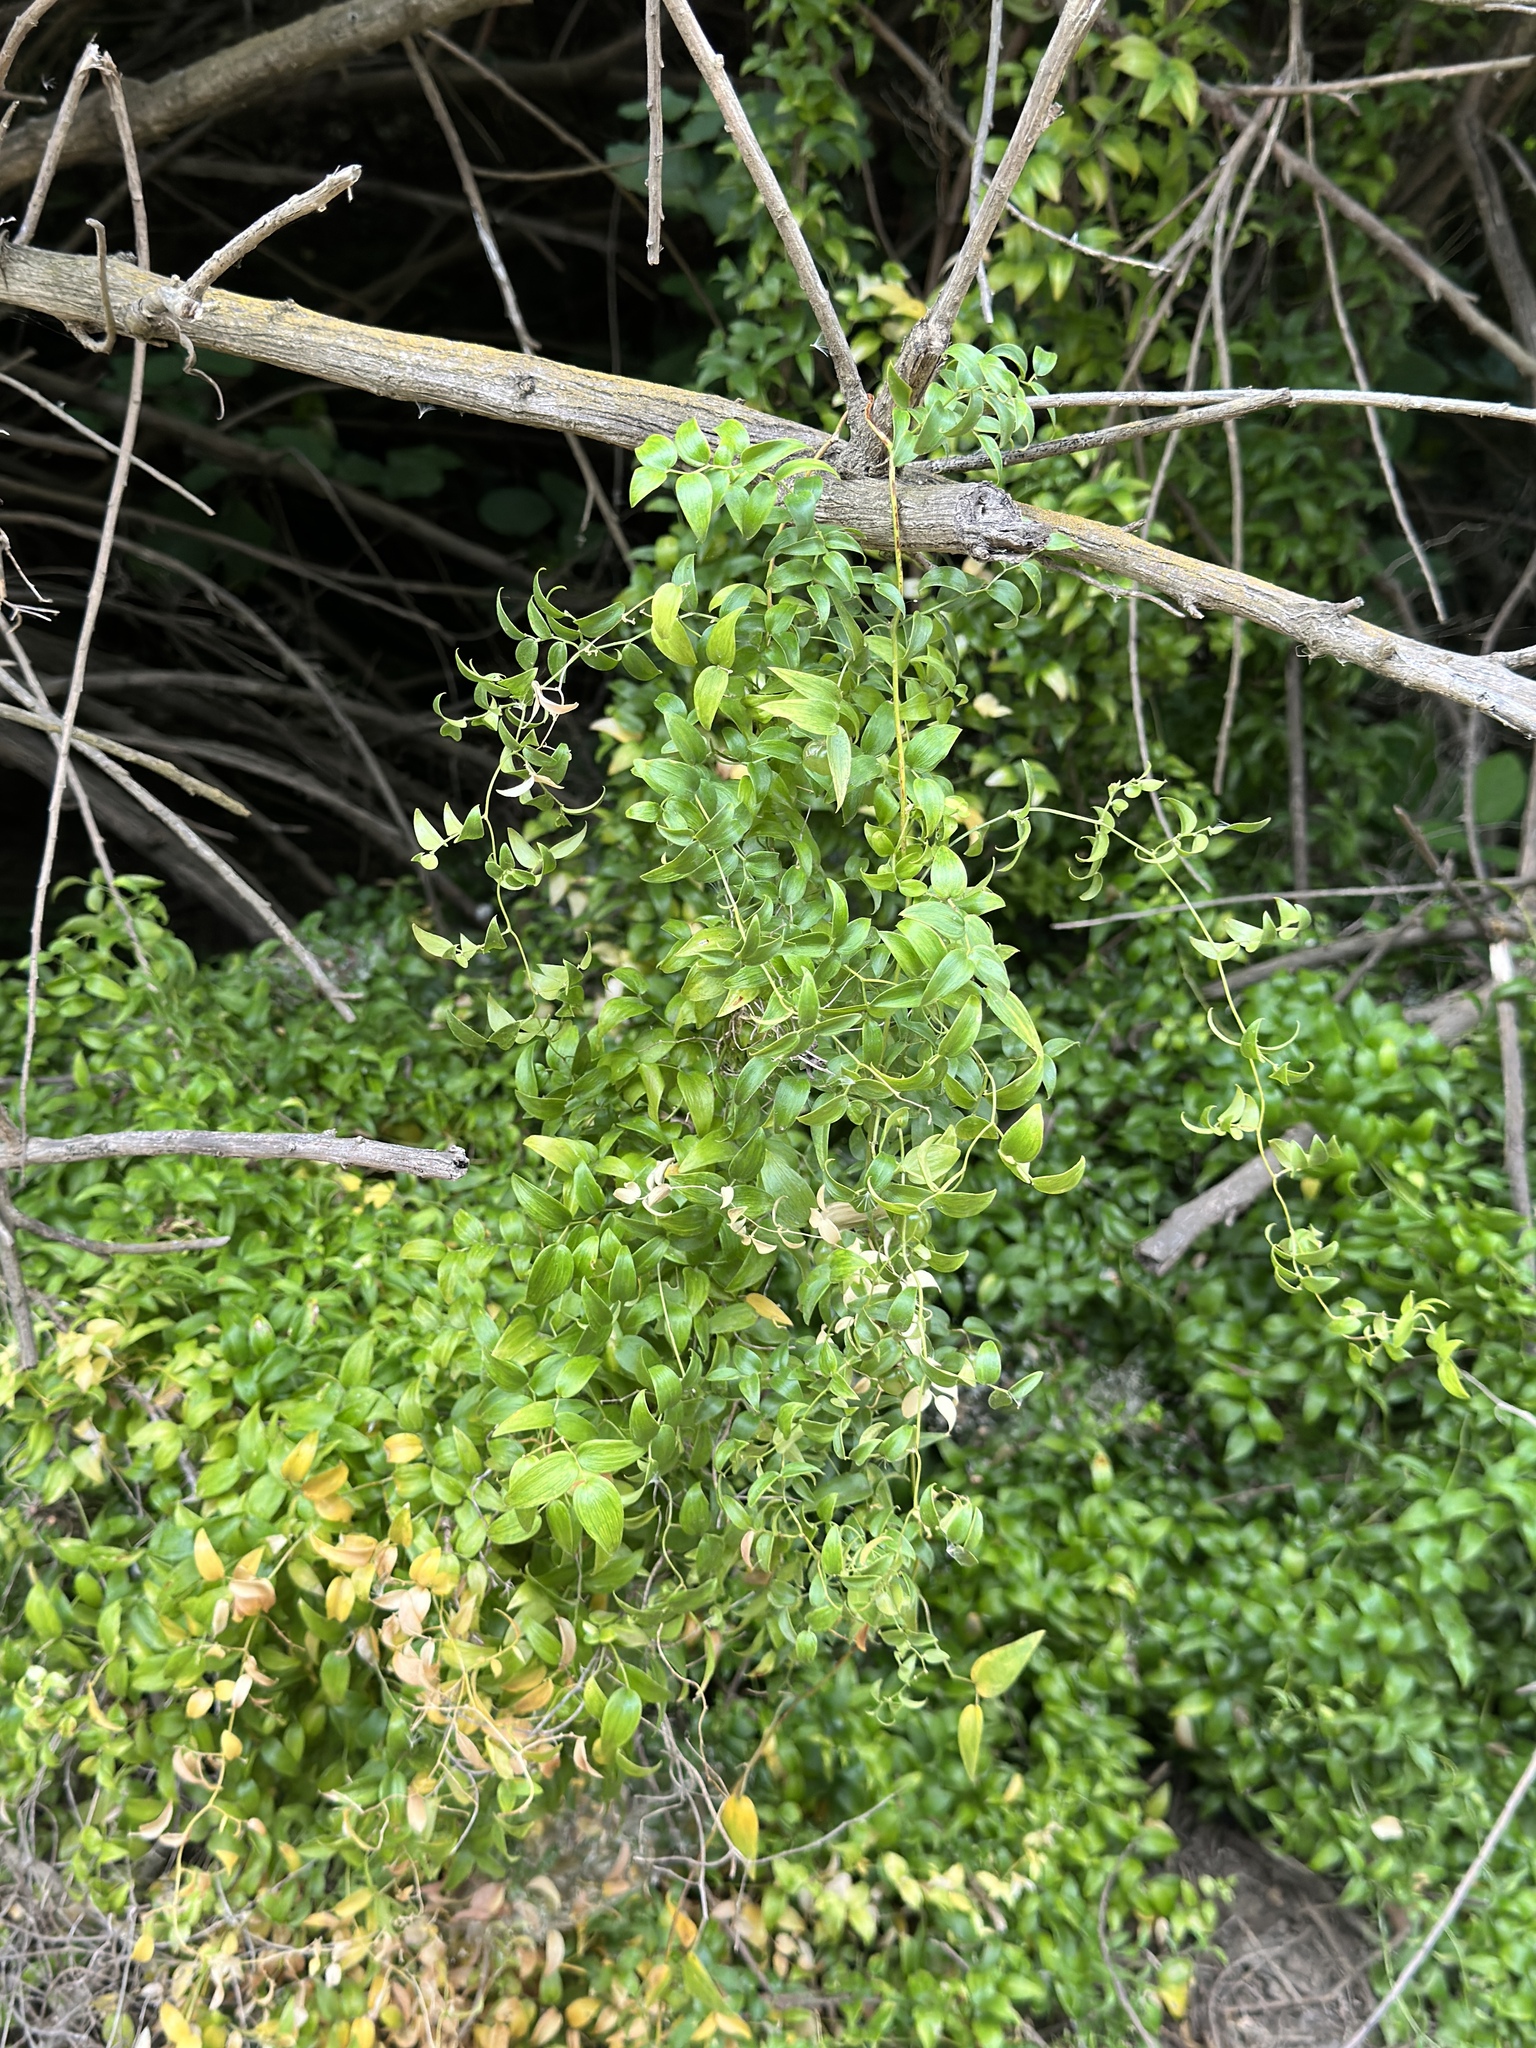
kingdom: Plantae
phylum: Tracheophyta
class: Liliopsida
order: Asparagales
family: Asparagaceae
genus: Asparagus
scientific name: Asparagus asparagoides
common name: African asparagus fern
